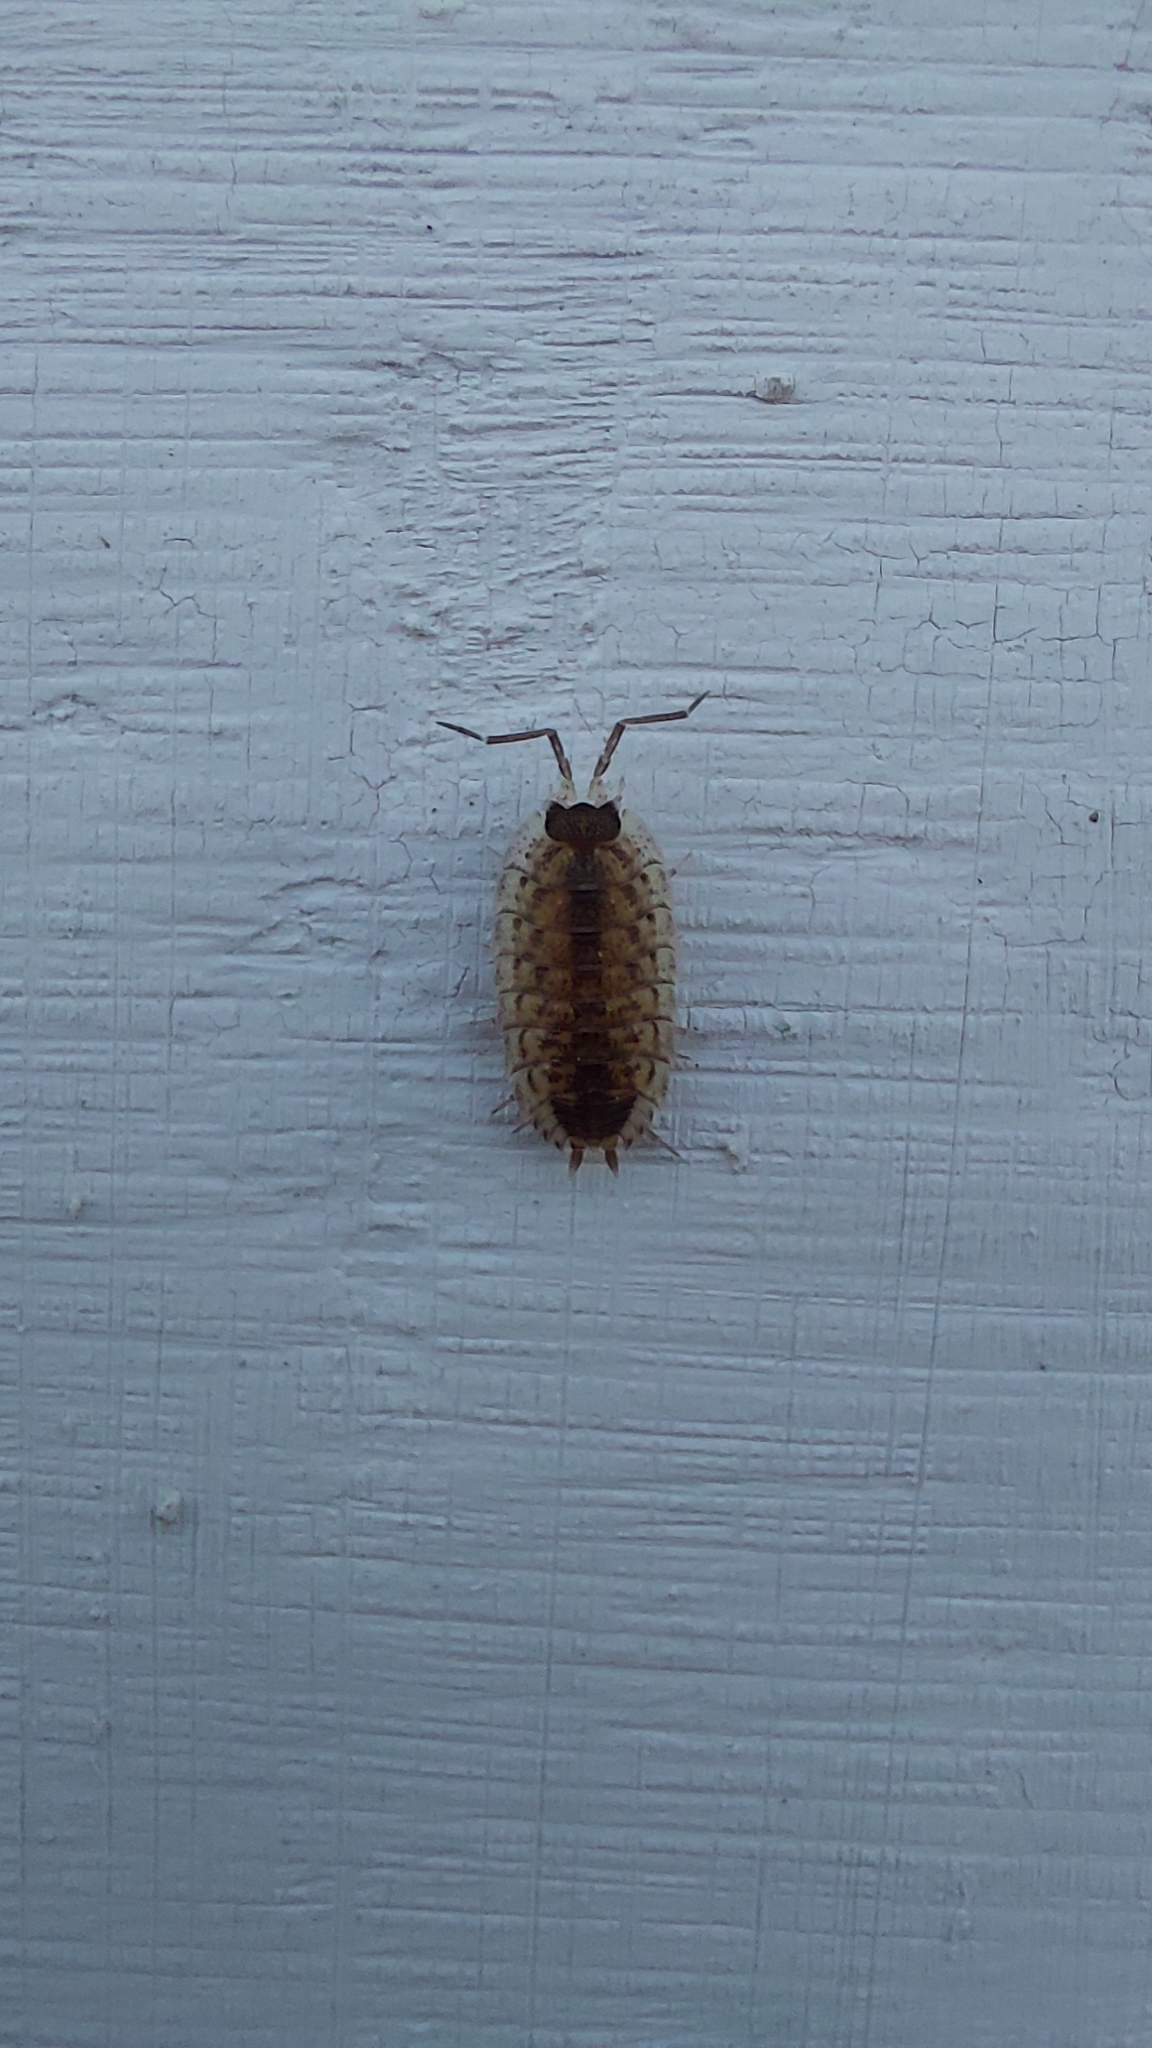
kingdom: Animalia
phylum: Arthropoda
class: Malacostraca
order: Isopoda
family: Porcellionidae
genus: Porcellio
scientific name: Porcellio spinicornis
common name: Painted woodlouse
